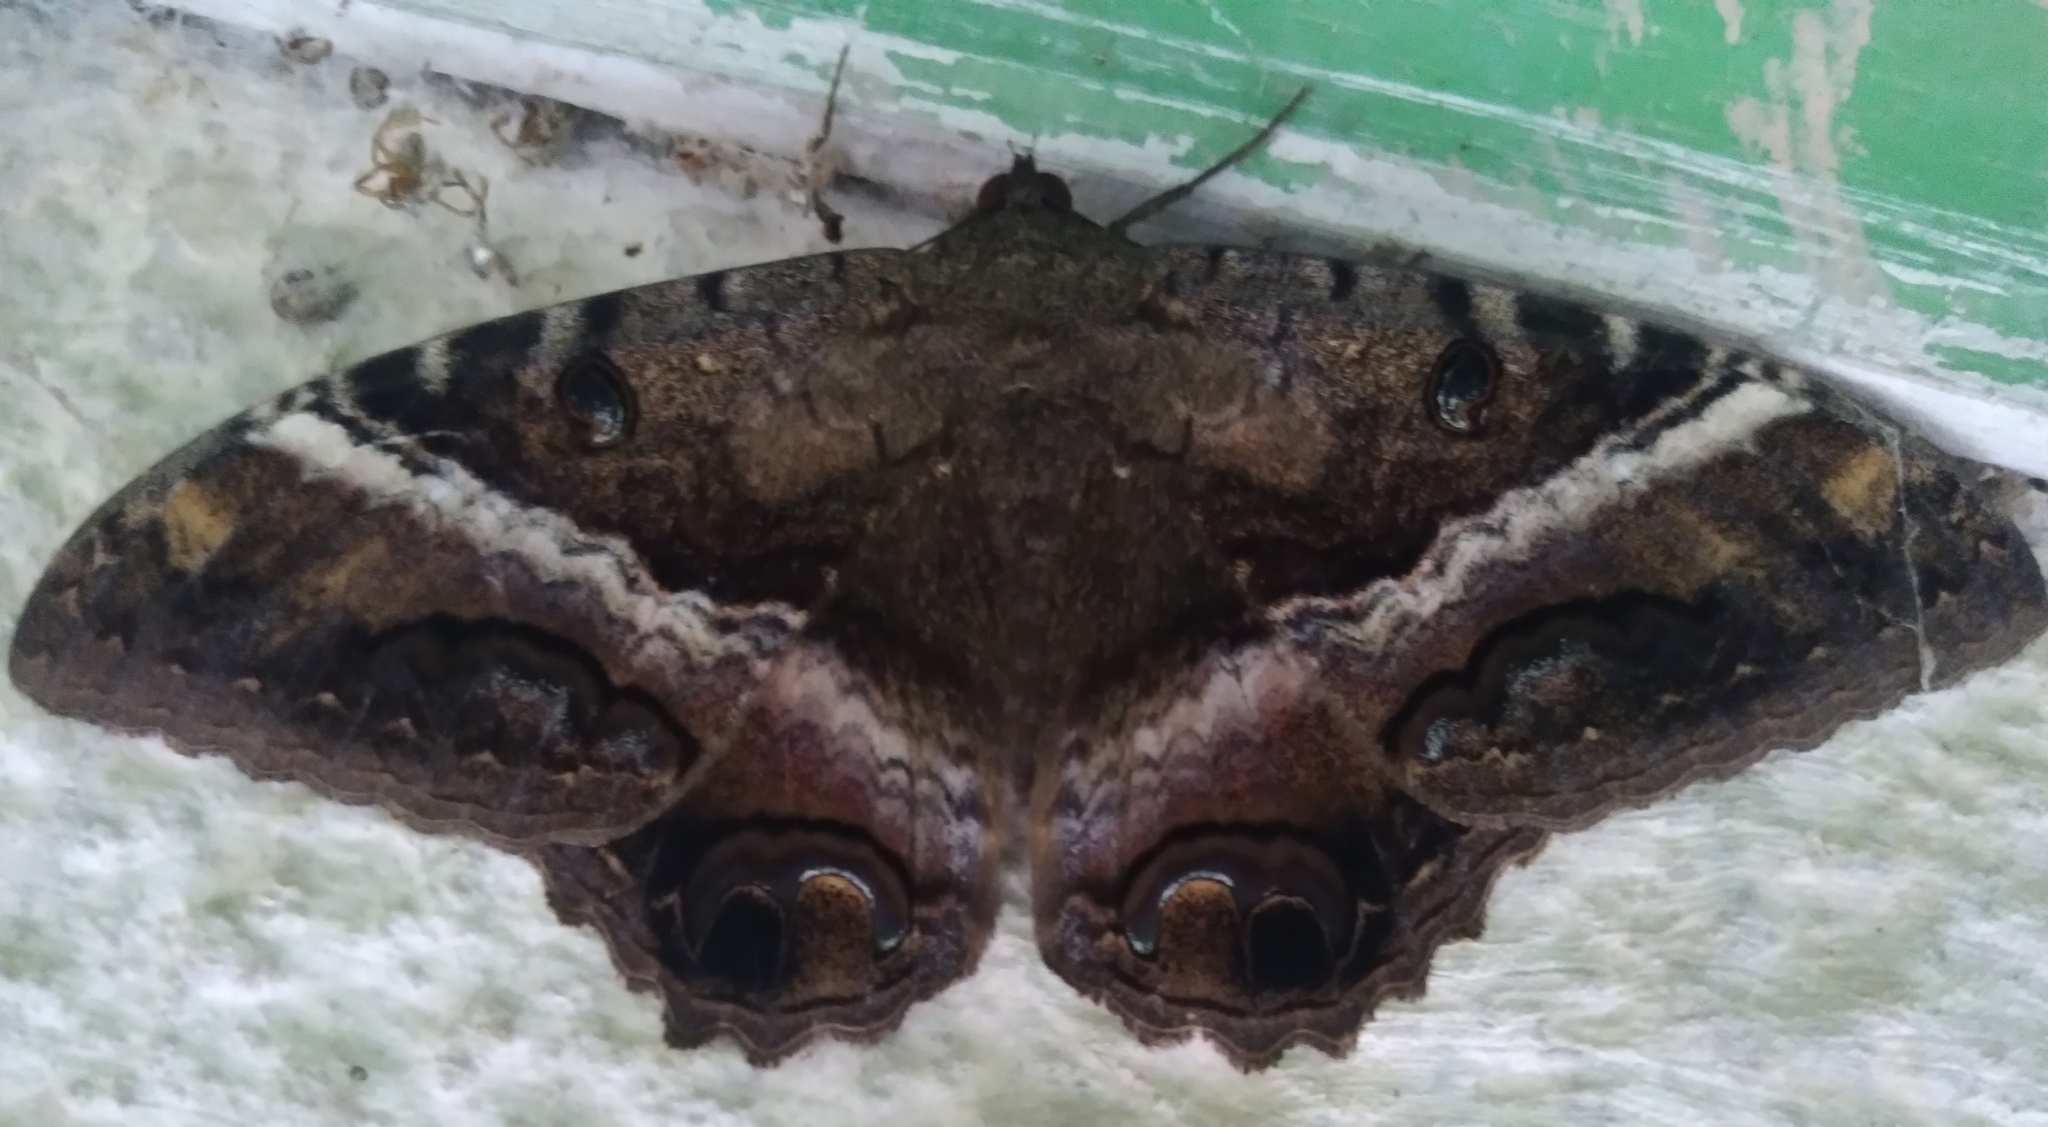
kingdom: Animalia
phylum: Arthropoda
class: Insecta
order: Lepidoptera
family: Erebidae
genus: Ascalapha
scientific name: Ascalapha odorata
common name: Black witch
